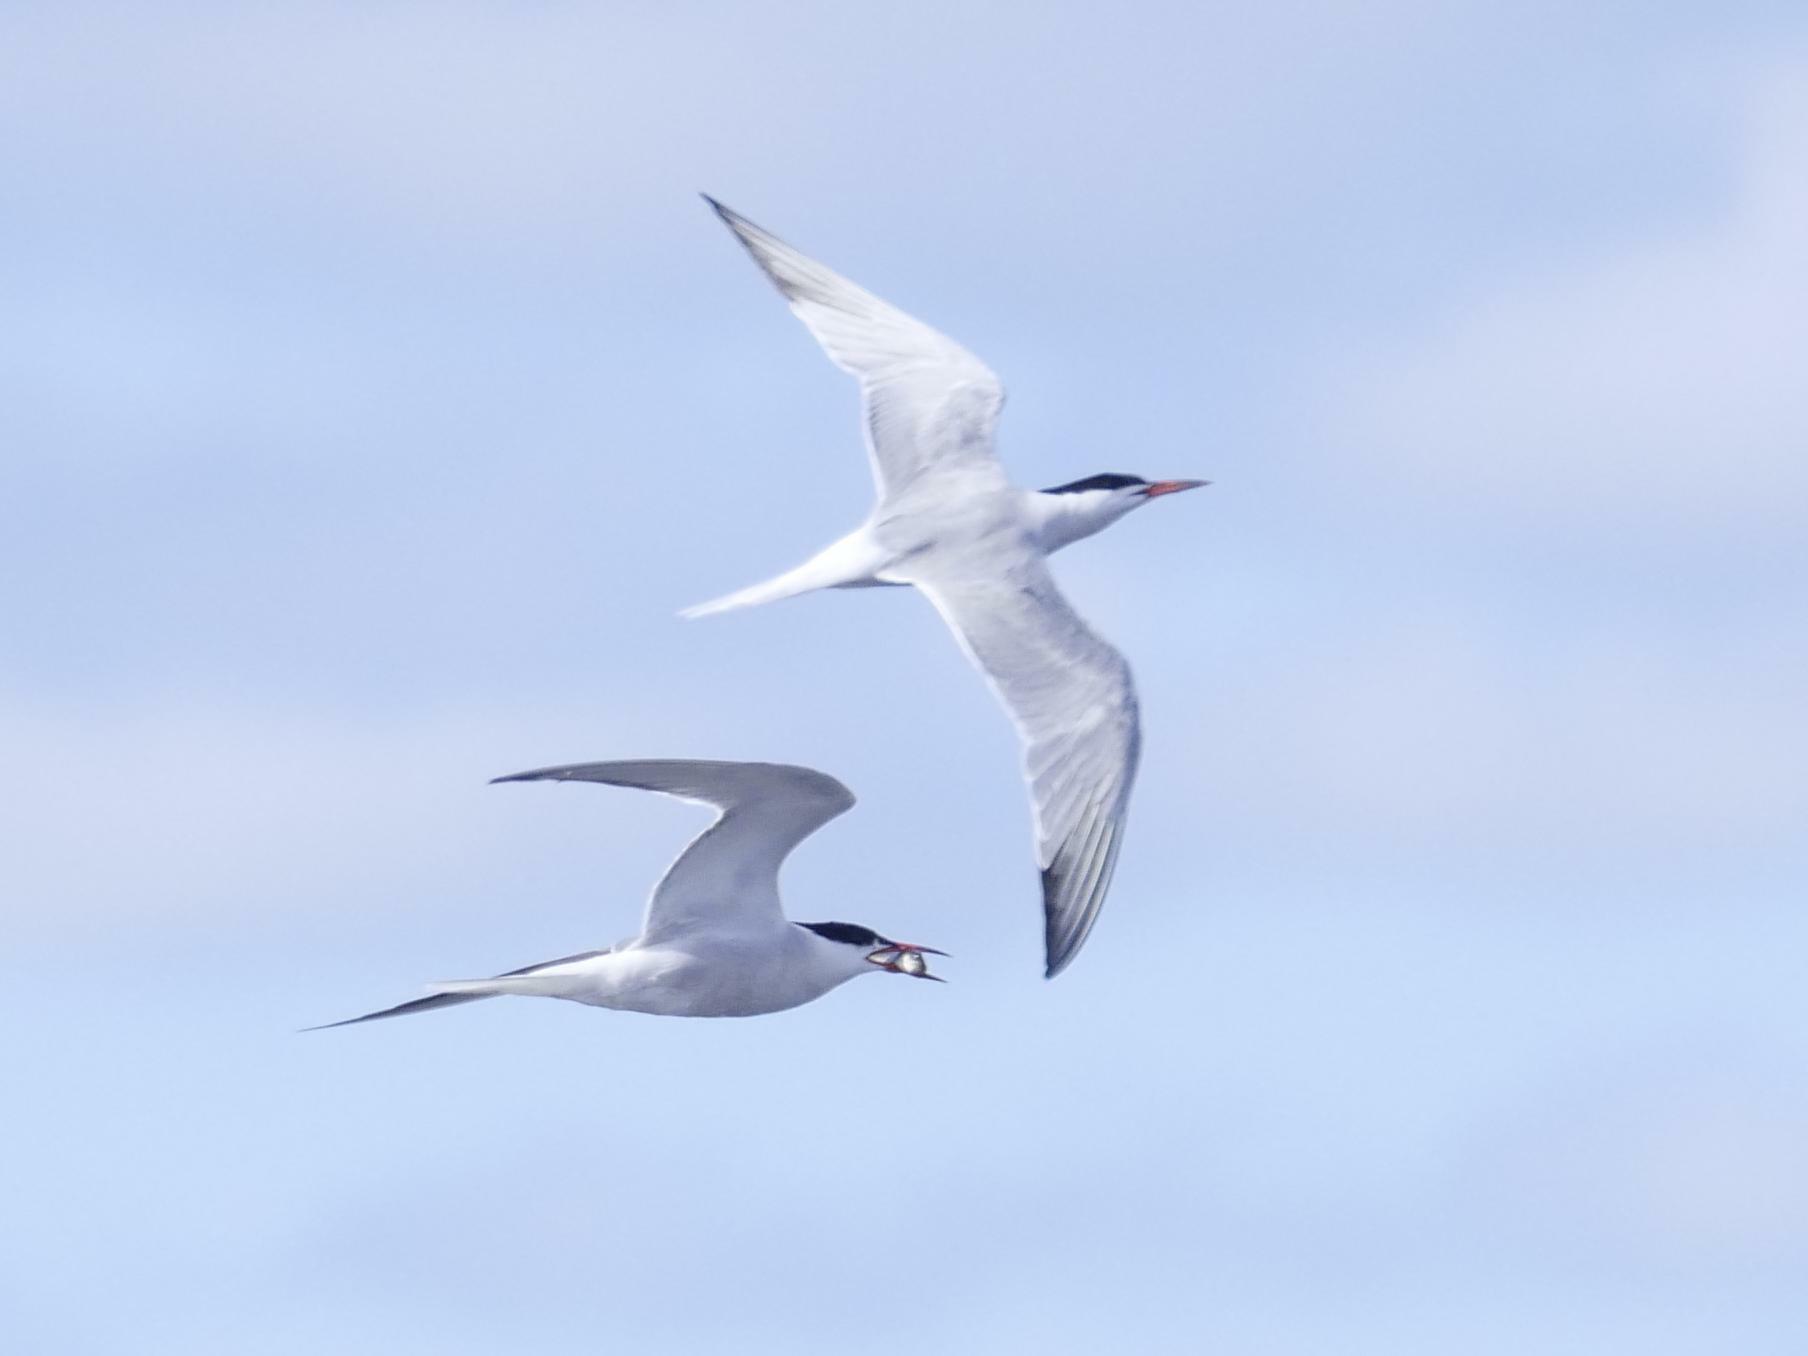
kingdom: Animalia
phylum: Chordata
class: Aves
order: Charadriiformes
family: Laridae
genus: Sterna
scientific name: Sterna hirundo
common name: Common tern
